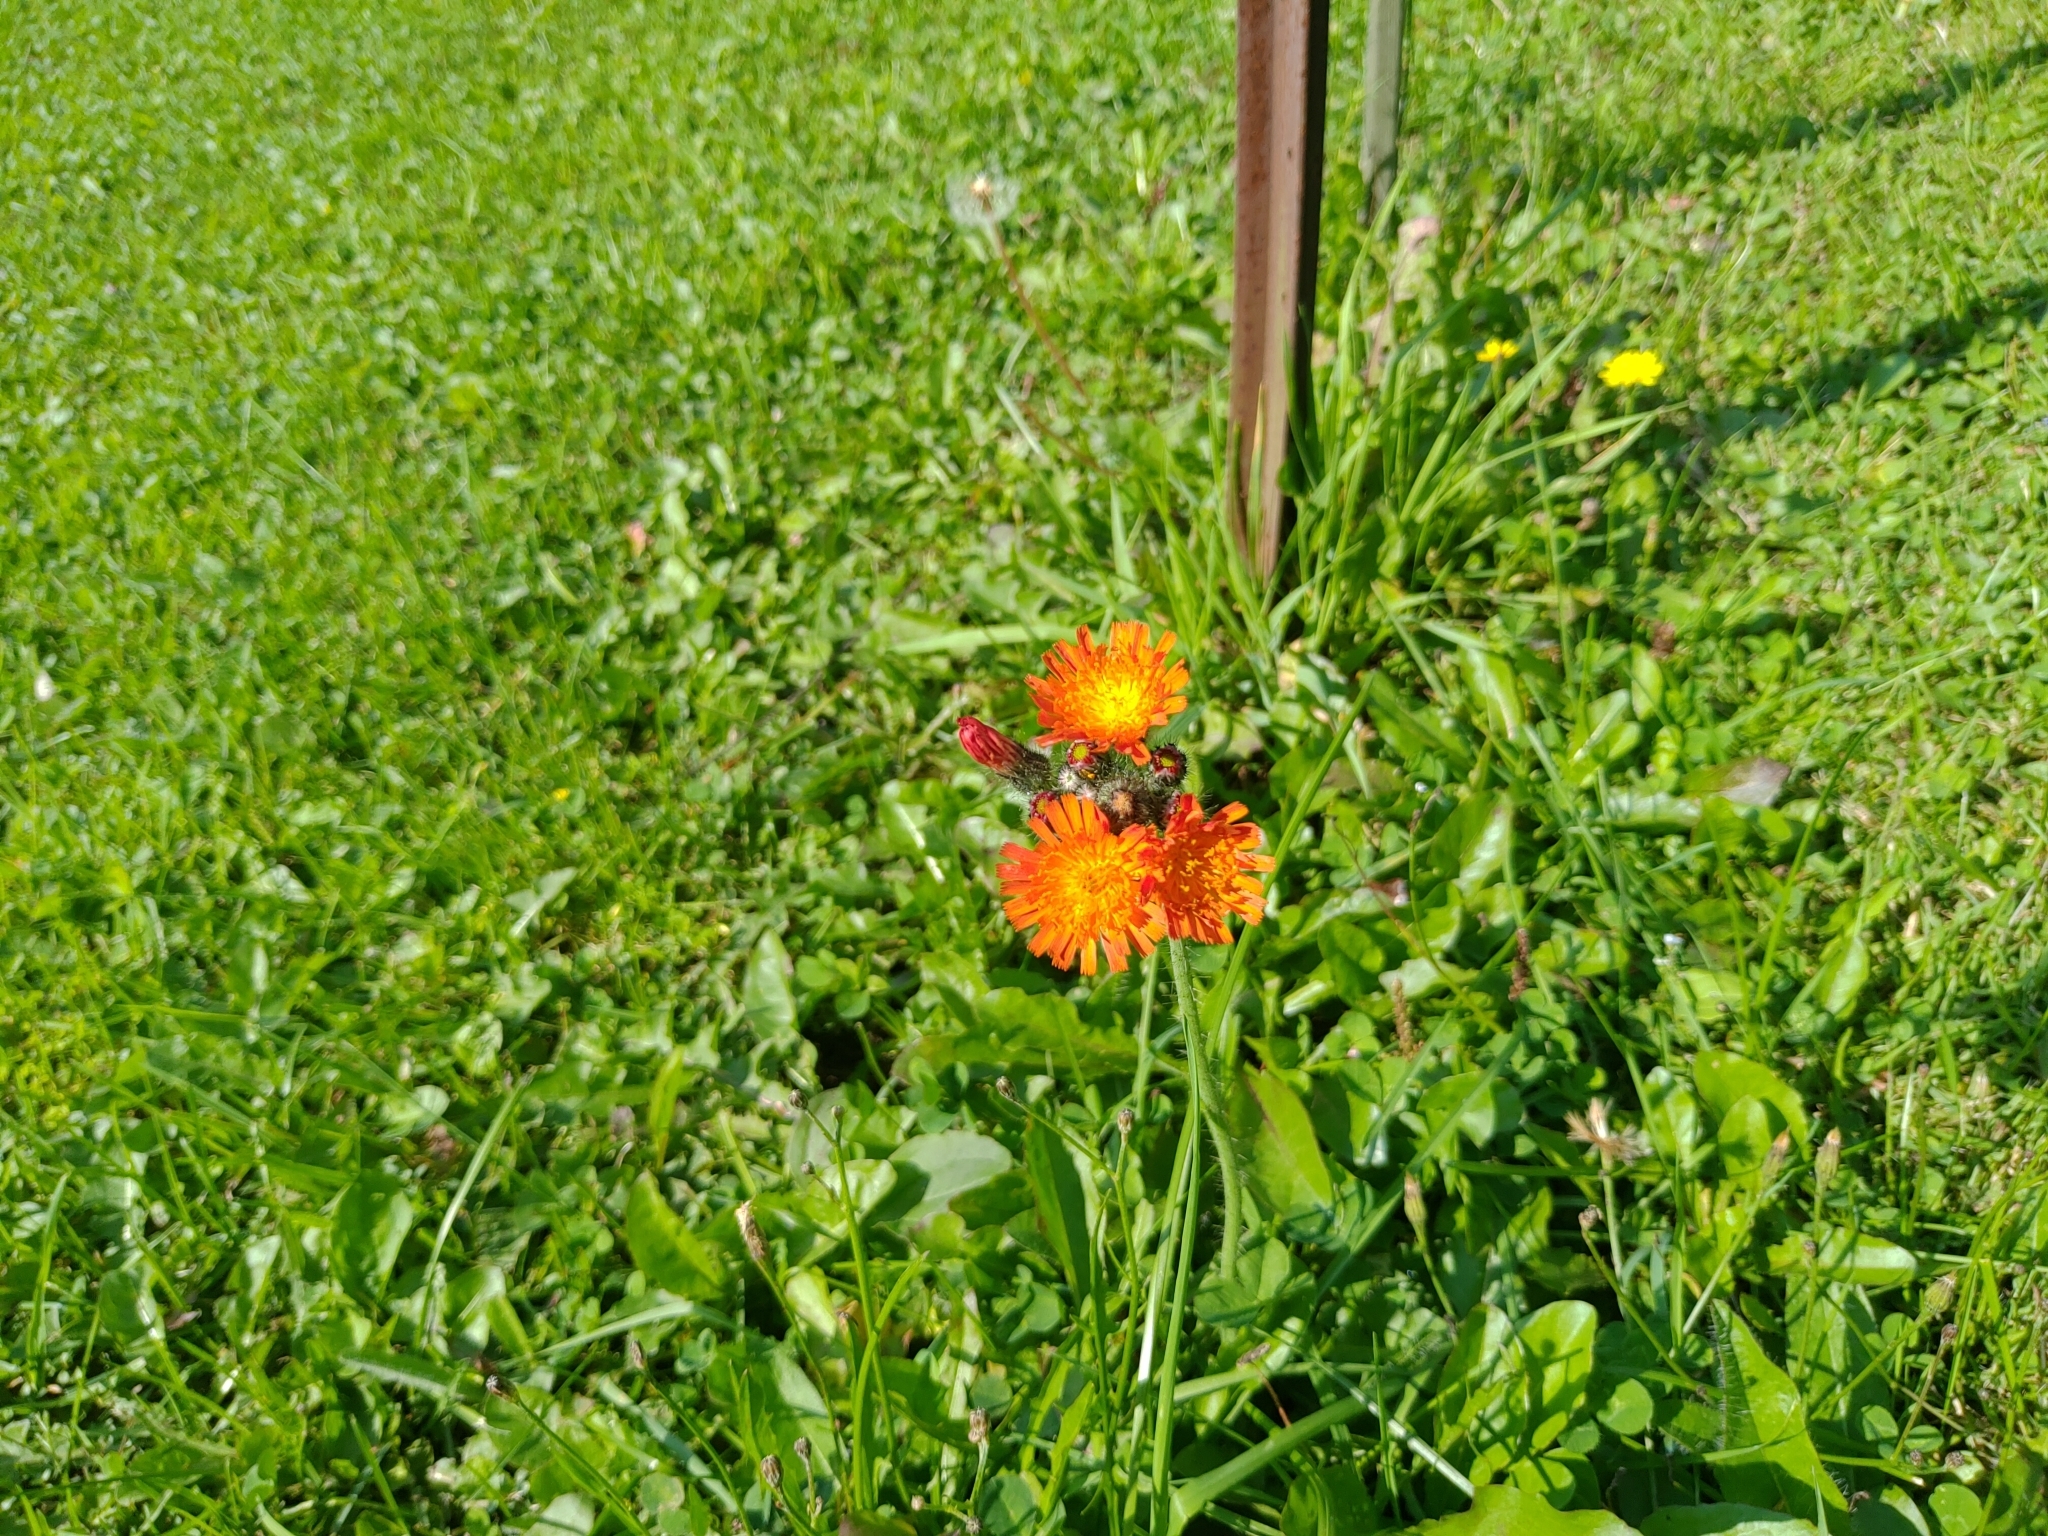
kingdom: Plantae
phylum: Tracheophyta
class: Magnoliopsida
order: Asterales
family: Asteraceae
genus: Pilosella
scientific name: Pilosella aurantiaca
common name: Fox-and-cubs
